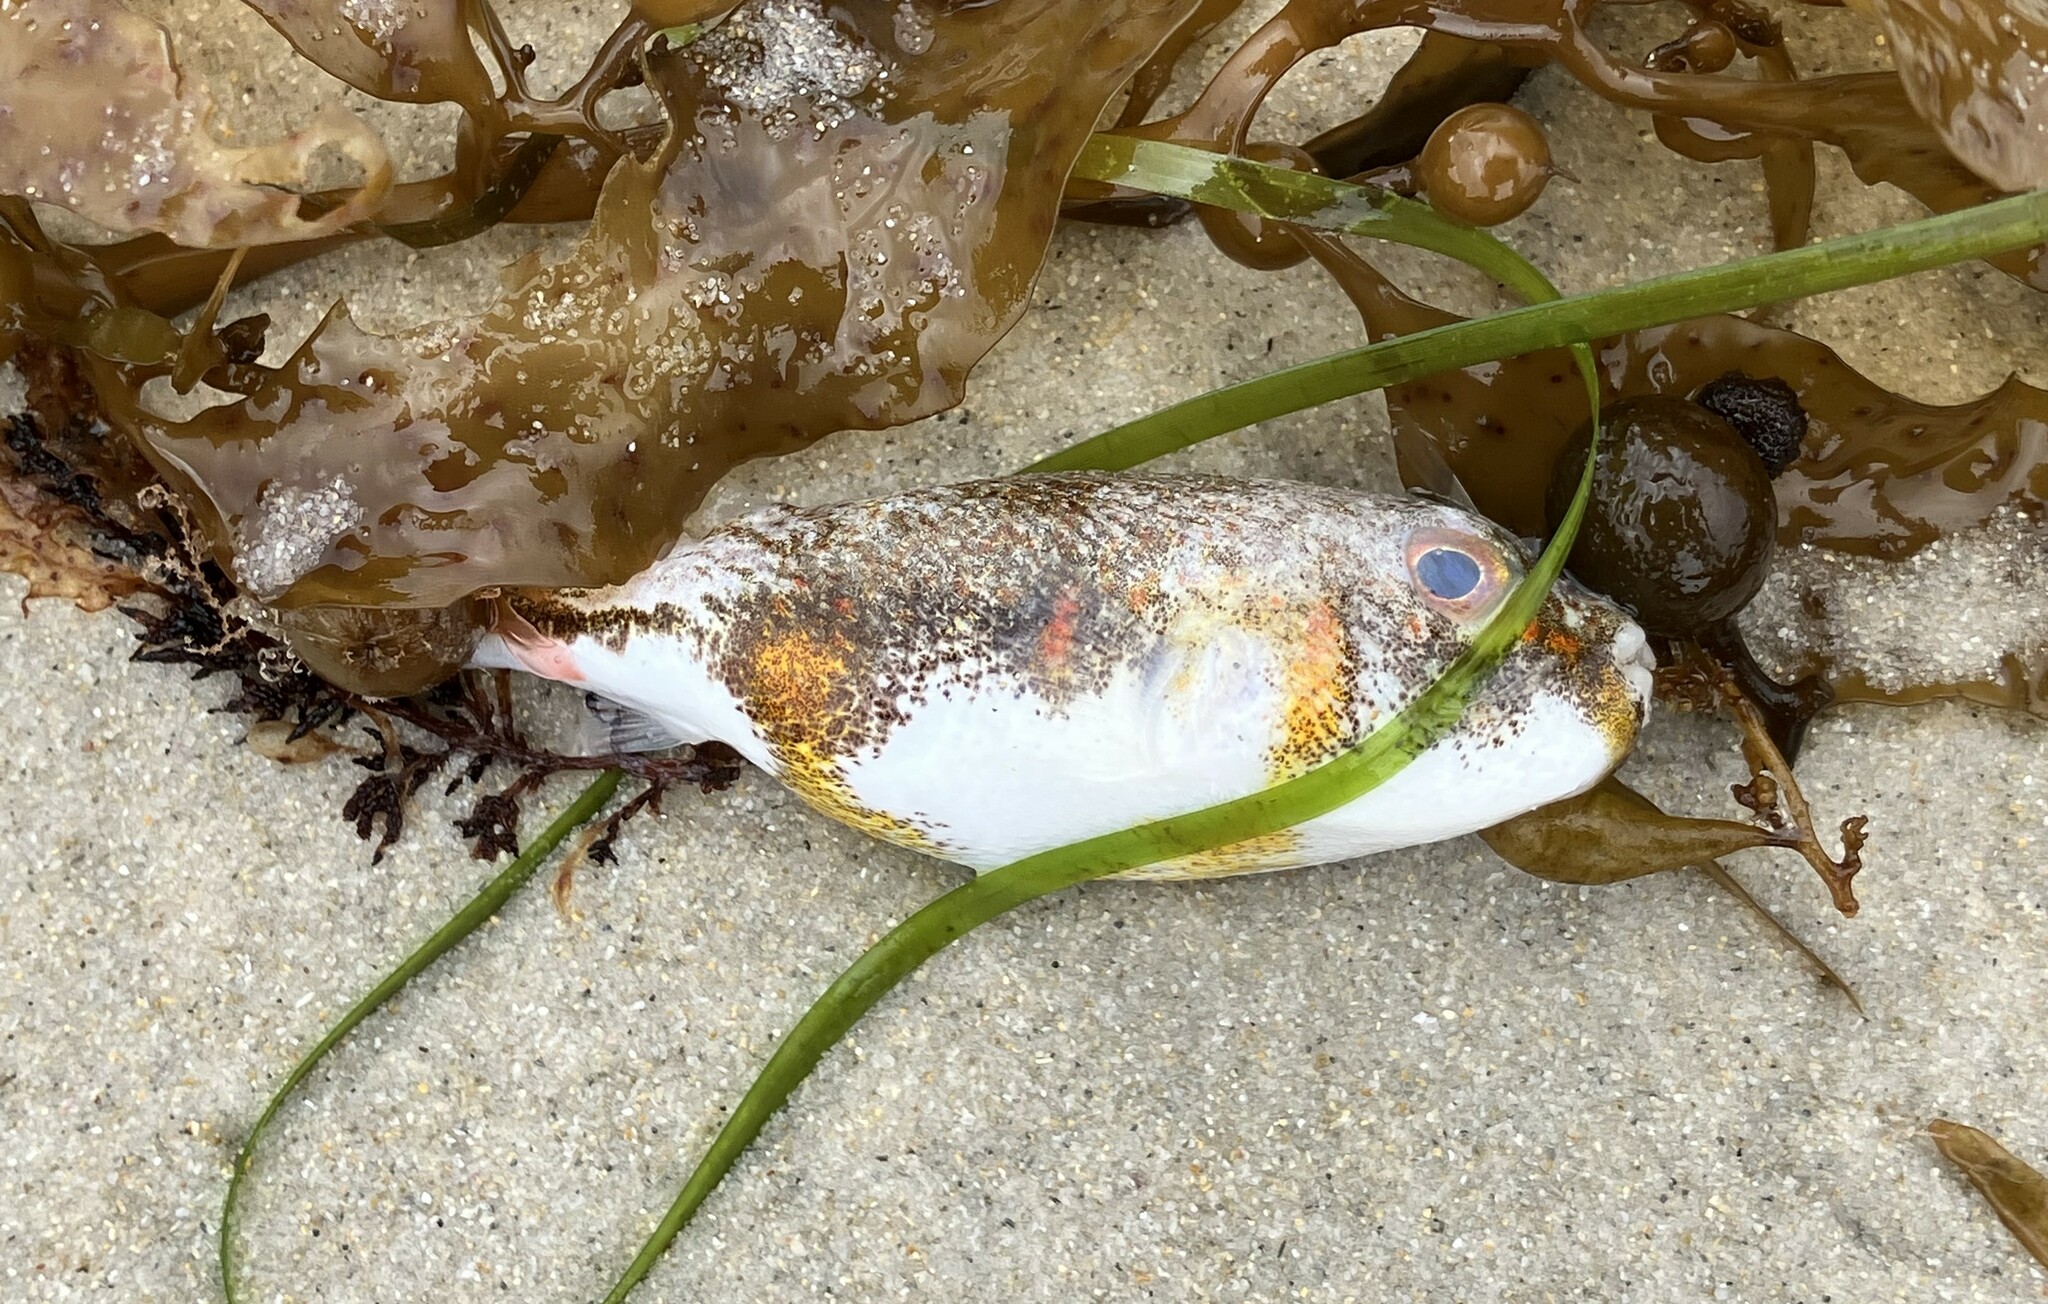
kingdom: Animalia
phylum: Chordata
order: Tetraodontiformes
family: Tetraodontidae
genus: Polyspina
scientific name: Polyspina piosae
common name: Orange-barred pufferfish
